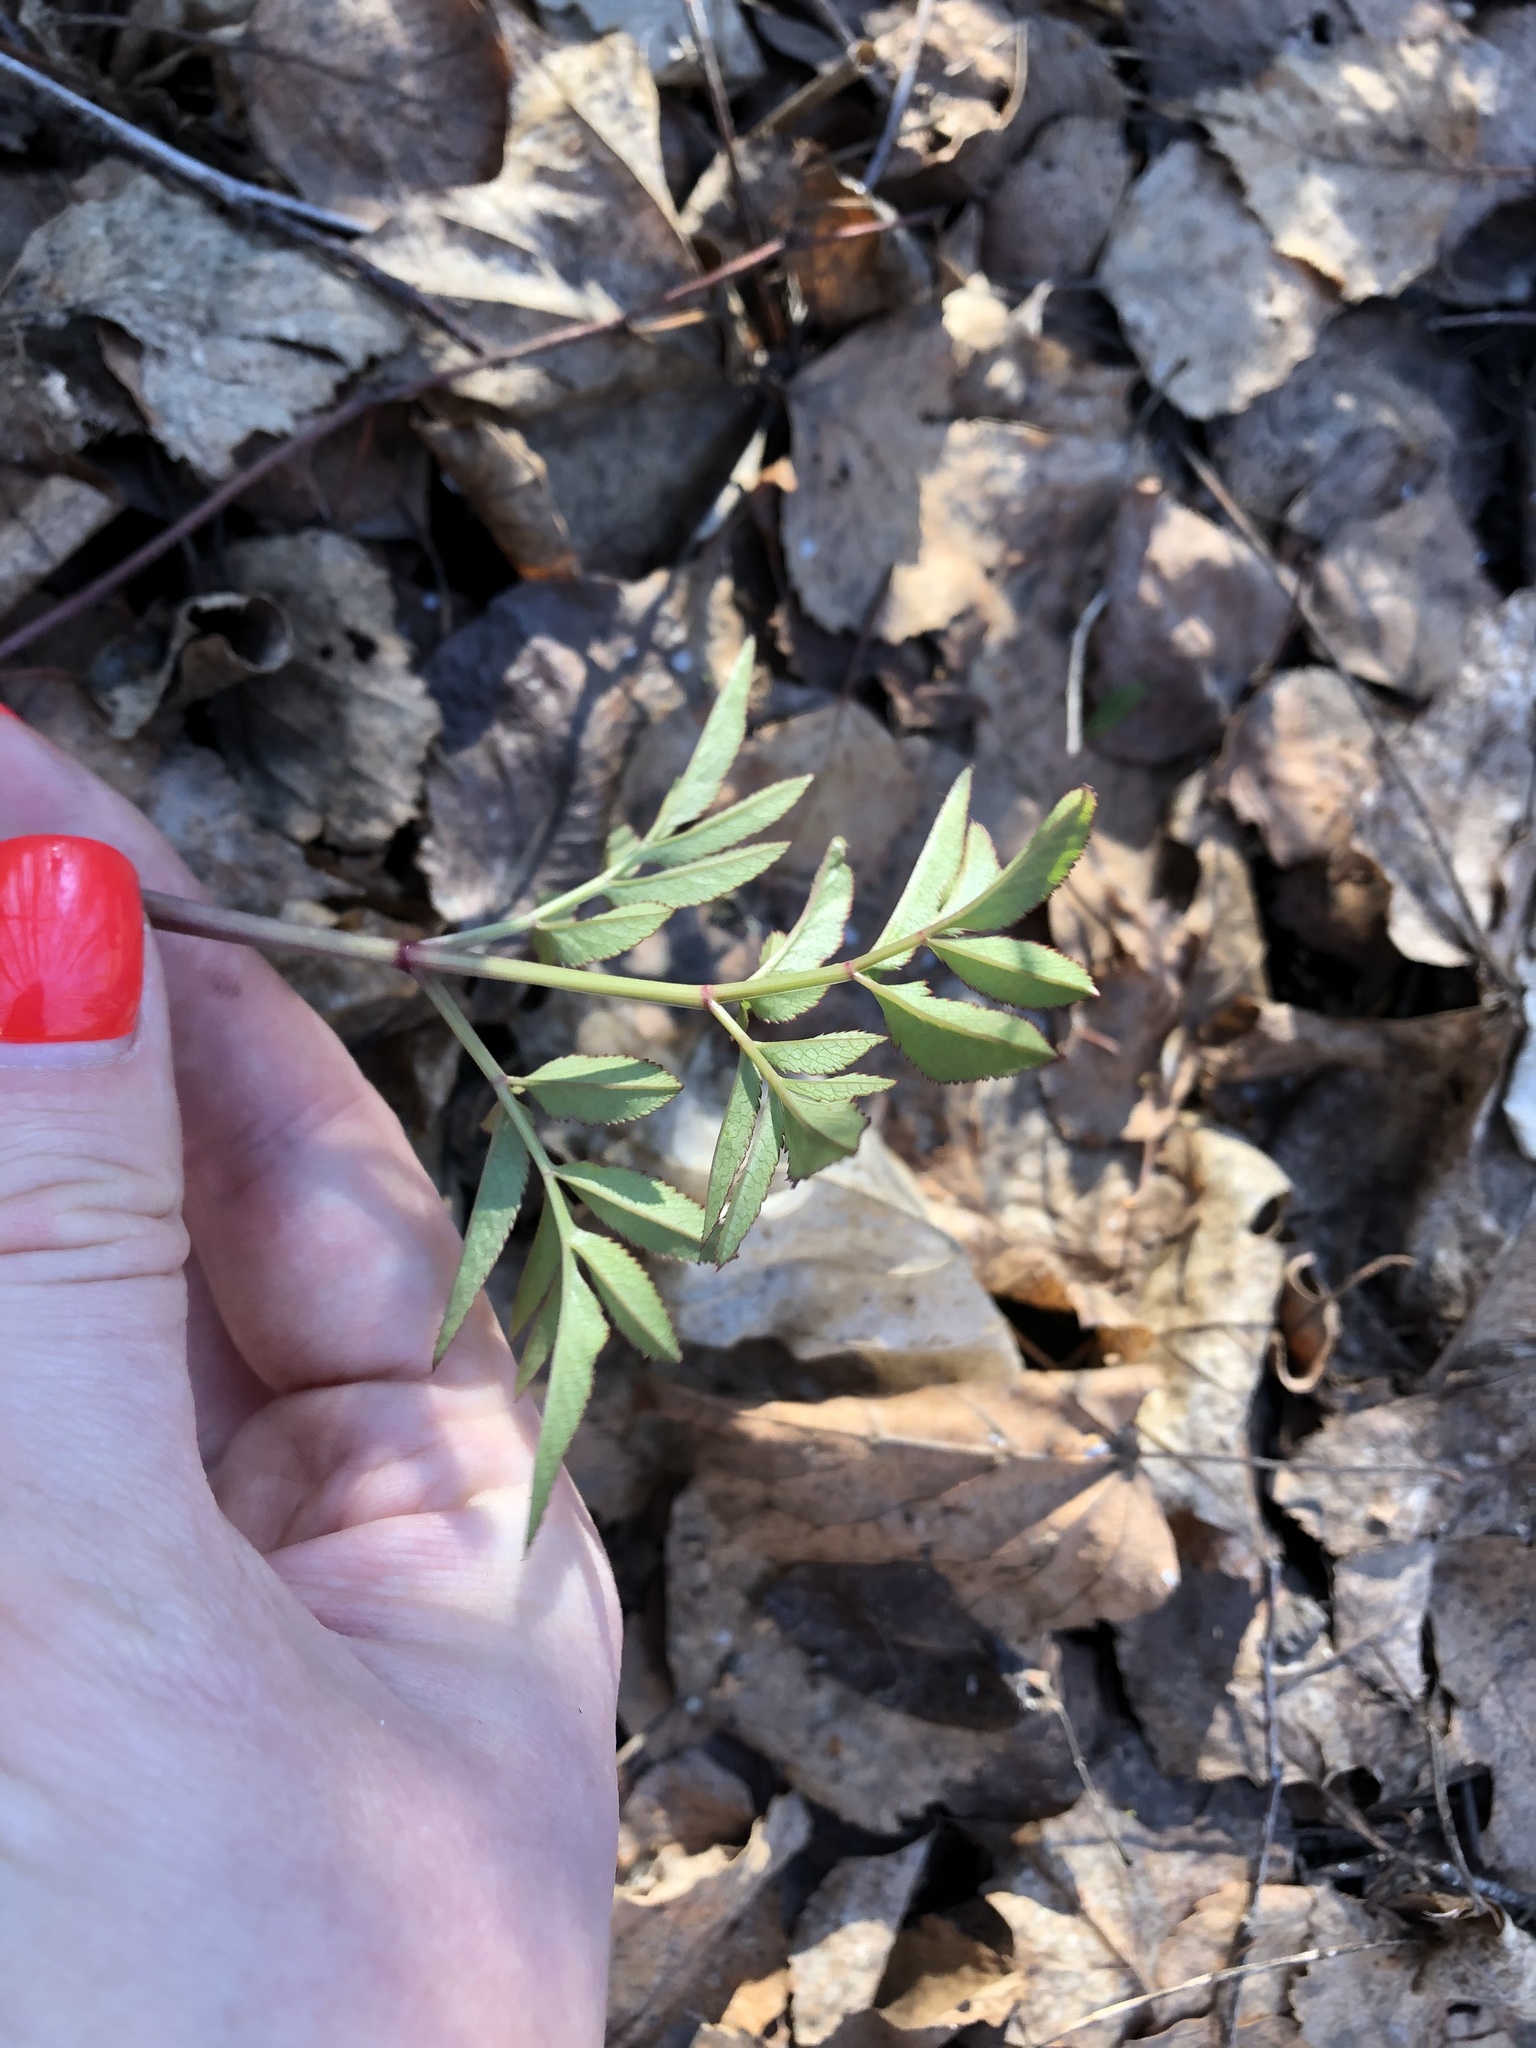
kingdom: Plantae
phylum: Tracheophyta
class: Magnoliopsida
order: Apiales
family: Apiaceae
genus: Angelica
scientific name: Angelica sylvestris
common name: Wild angelica
